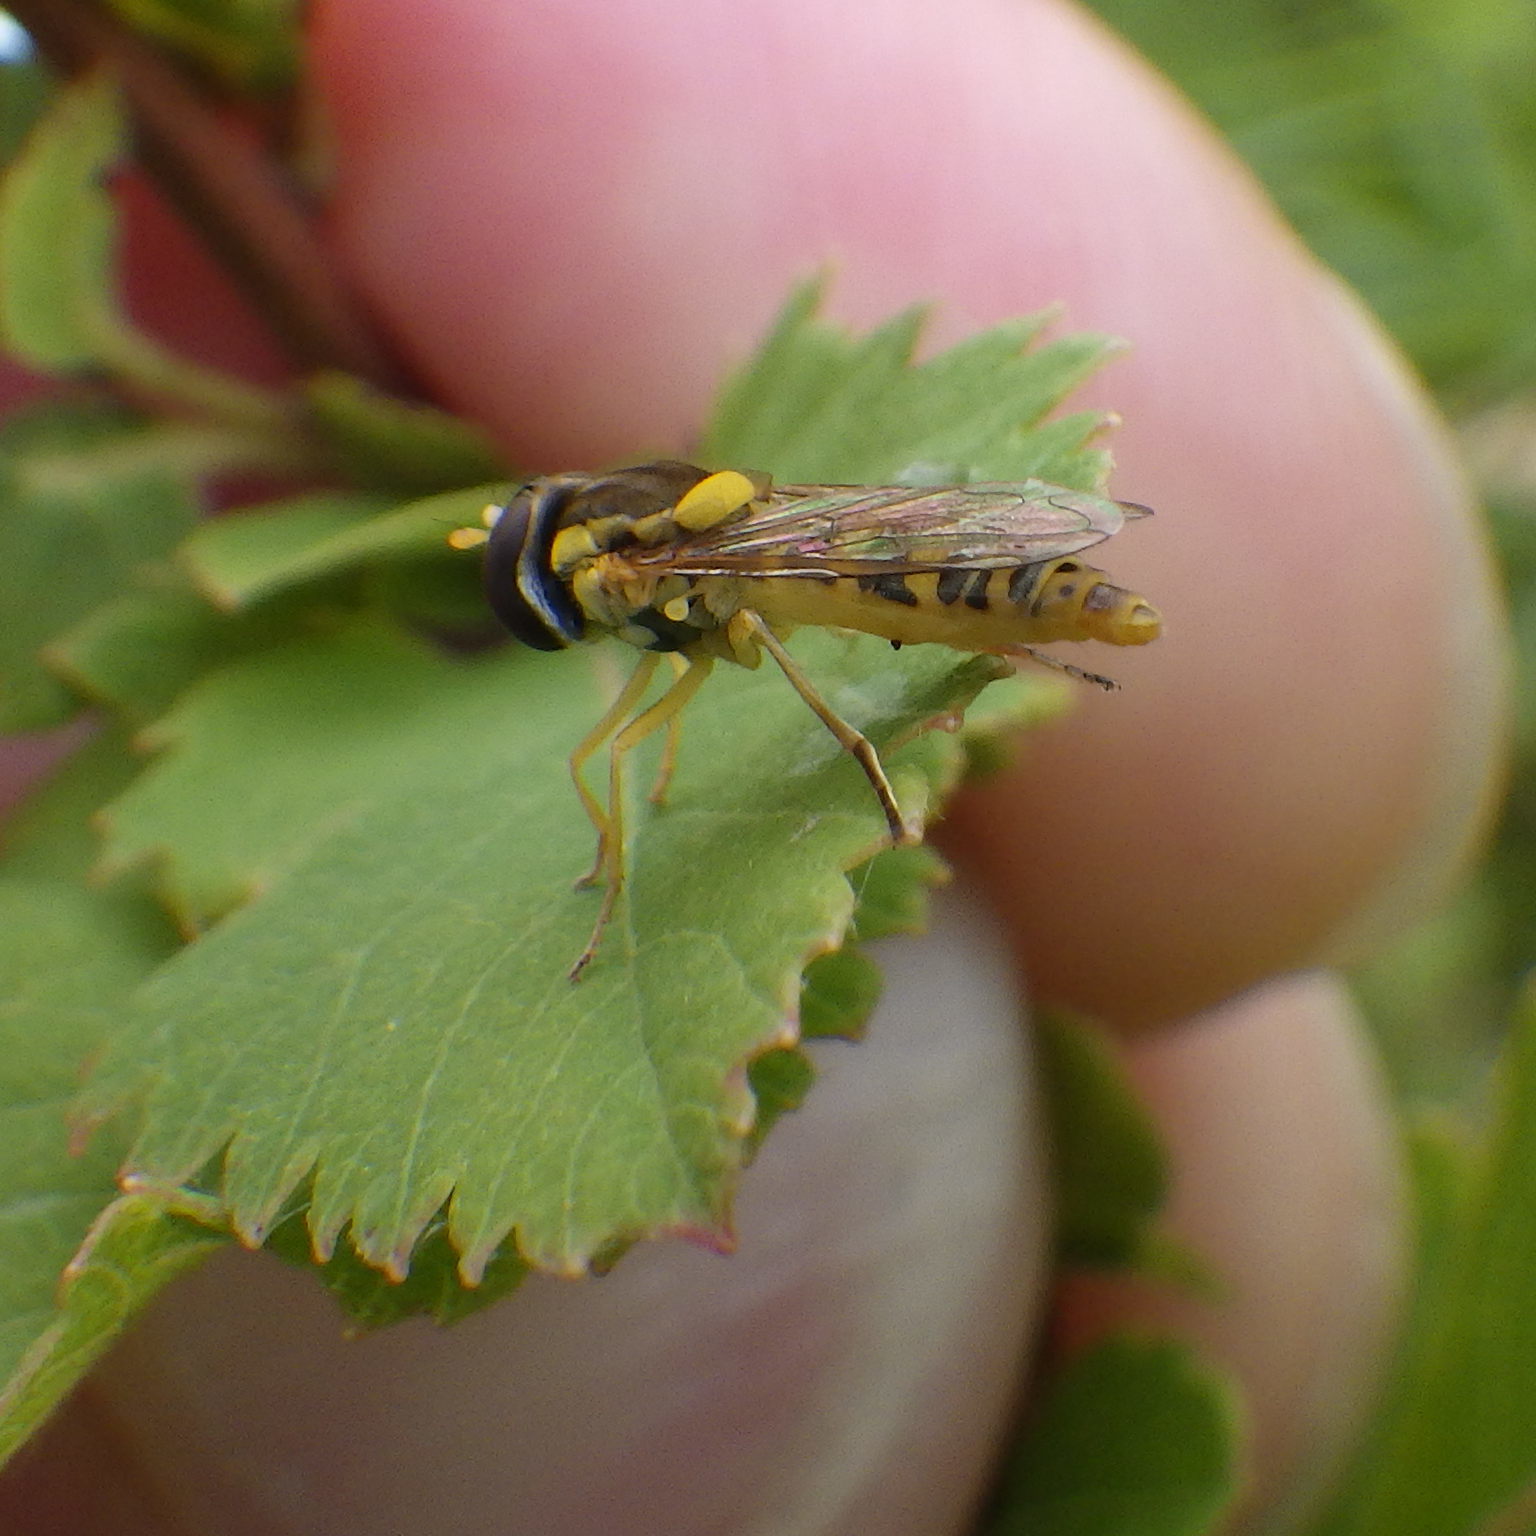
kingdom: Animalia
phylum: Arthropoda
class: Insecta
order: Diptera
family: Syrphidae
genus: Sphaerophoria
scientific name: Sphaerophoria
